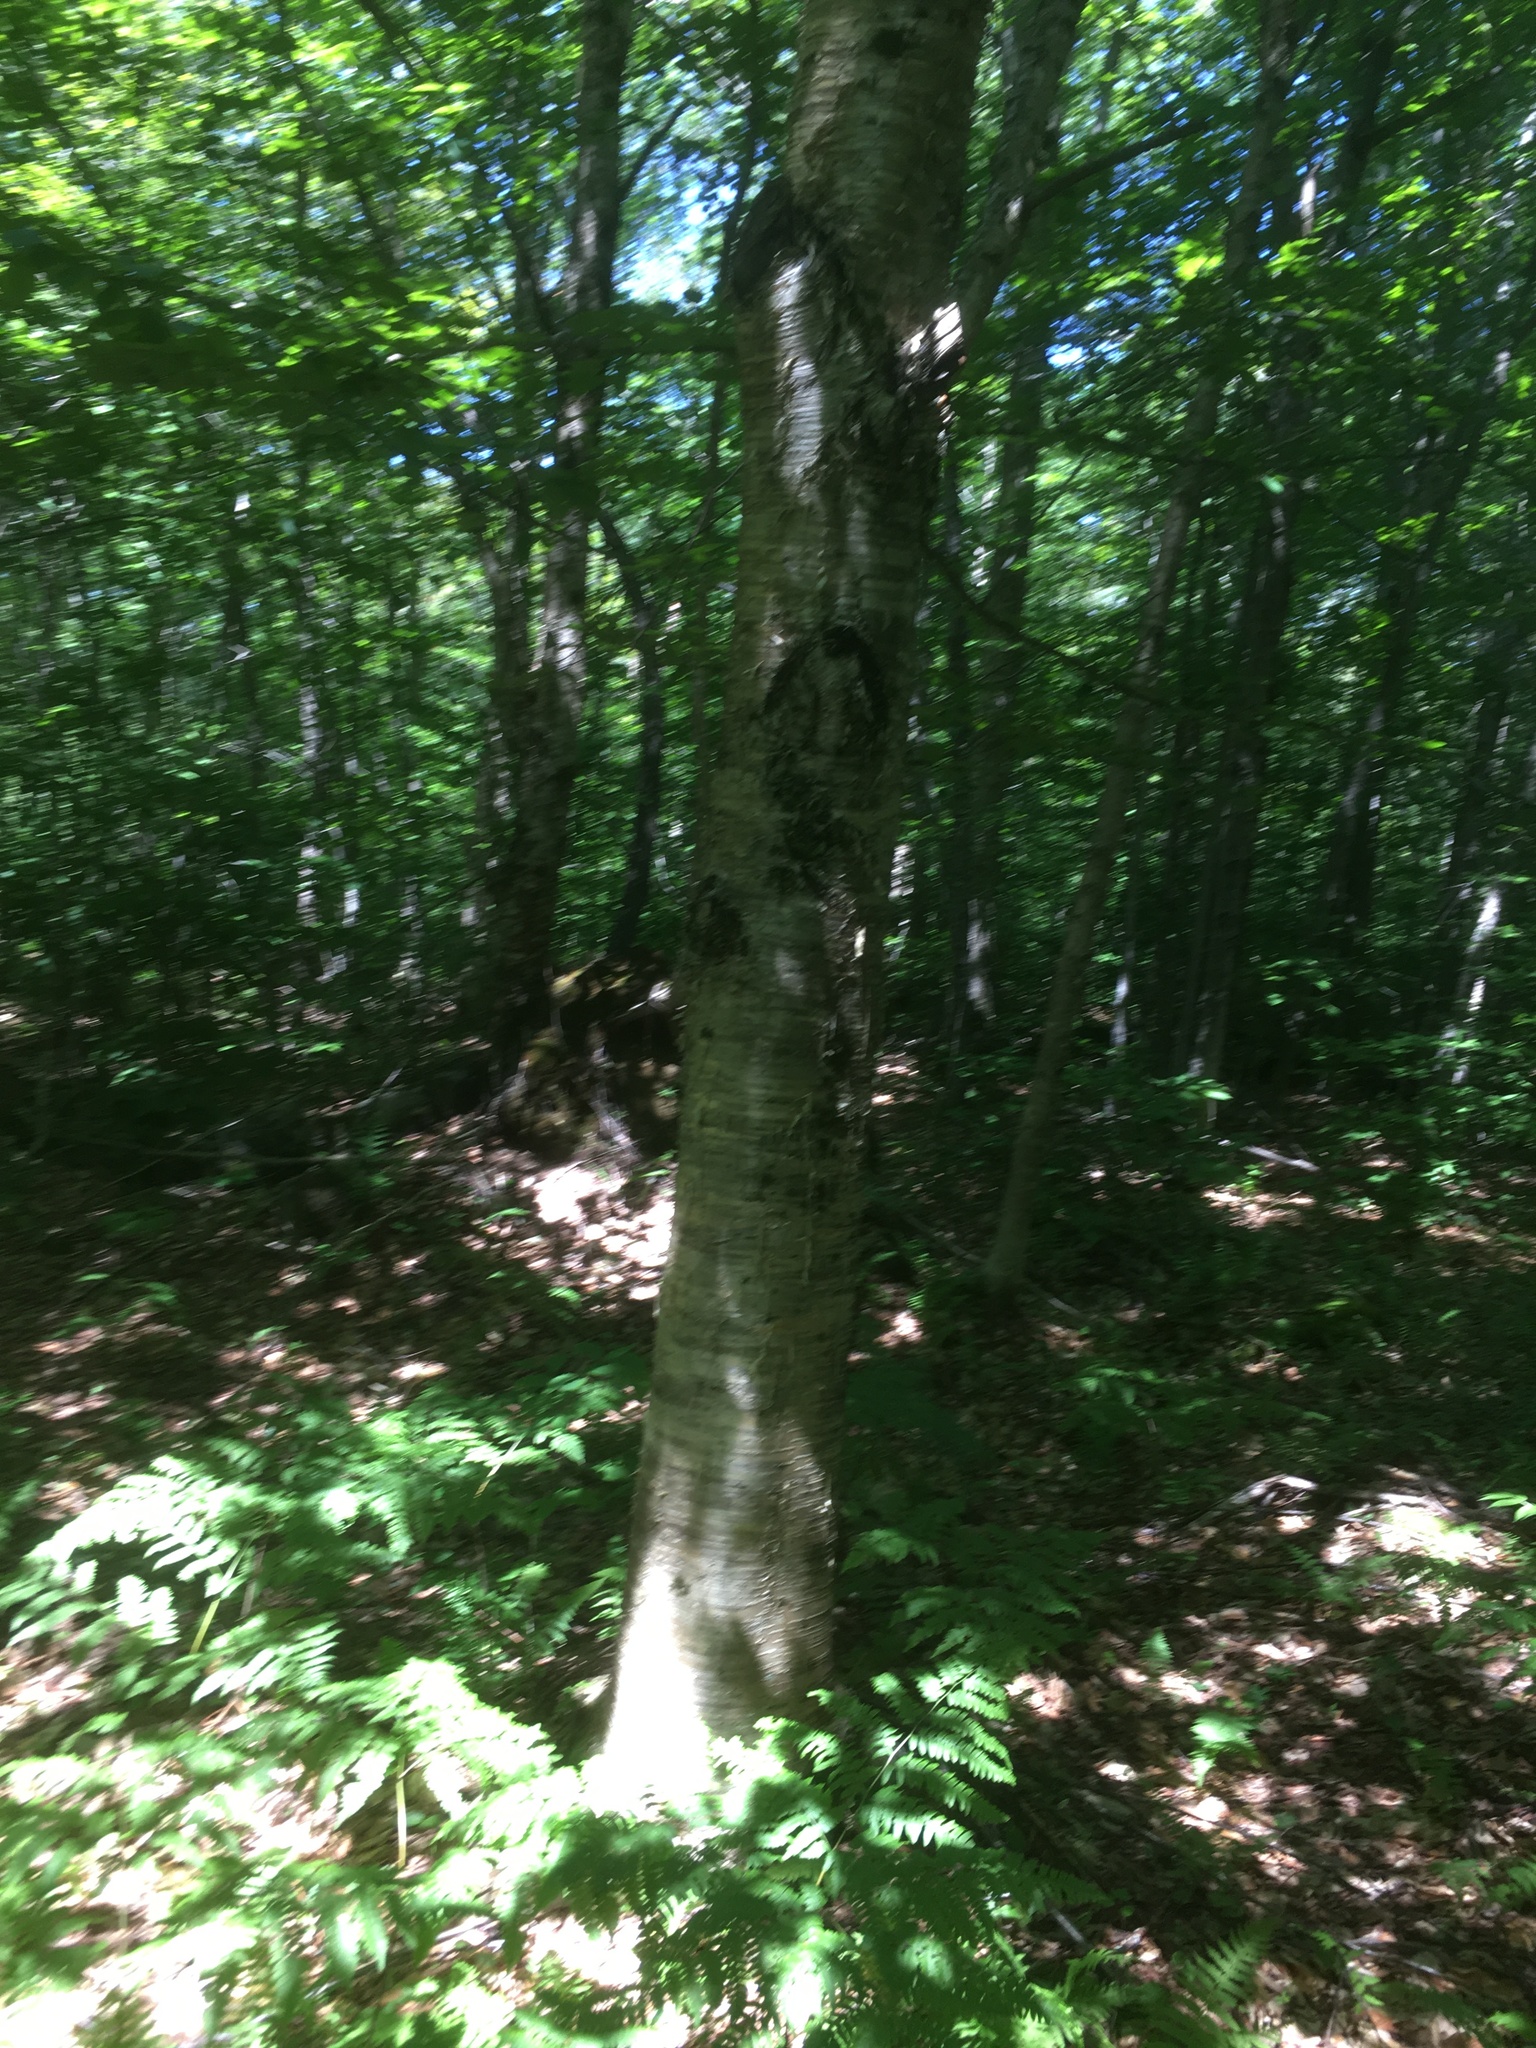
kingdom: Plantae
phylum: Tracheophyta
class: Magnoliopsida
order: Fagales
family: Betulaceae
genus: Betula
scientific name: Betula alleghaniensis
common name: Yellow birch
